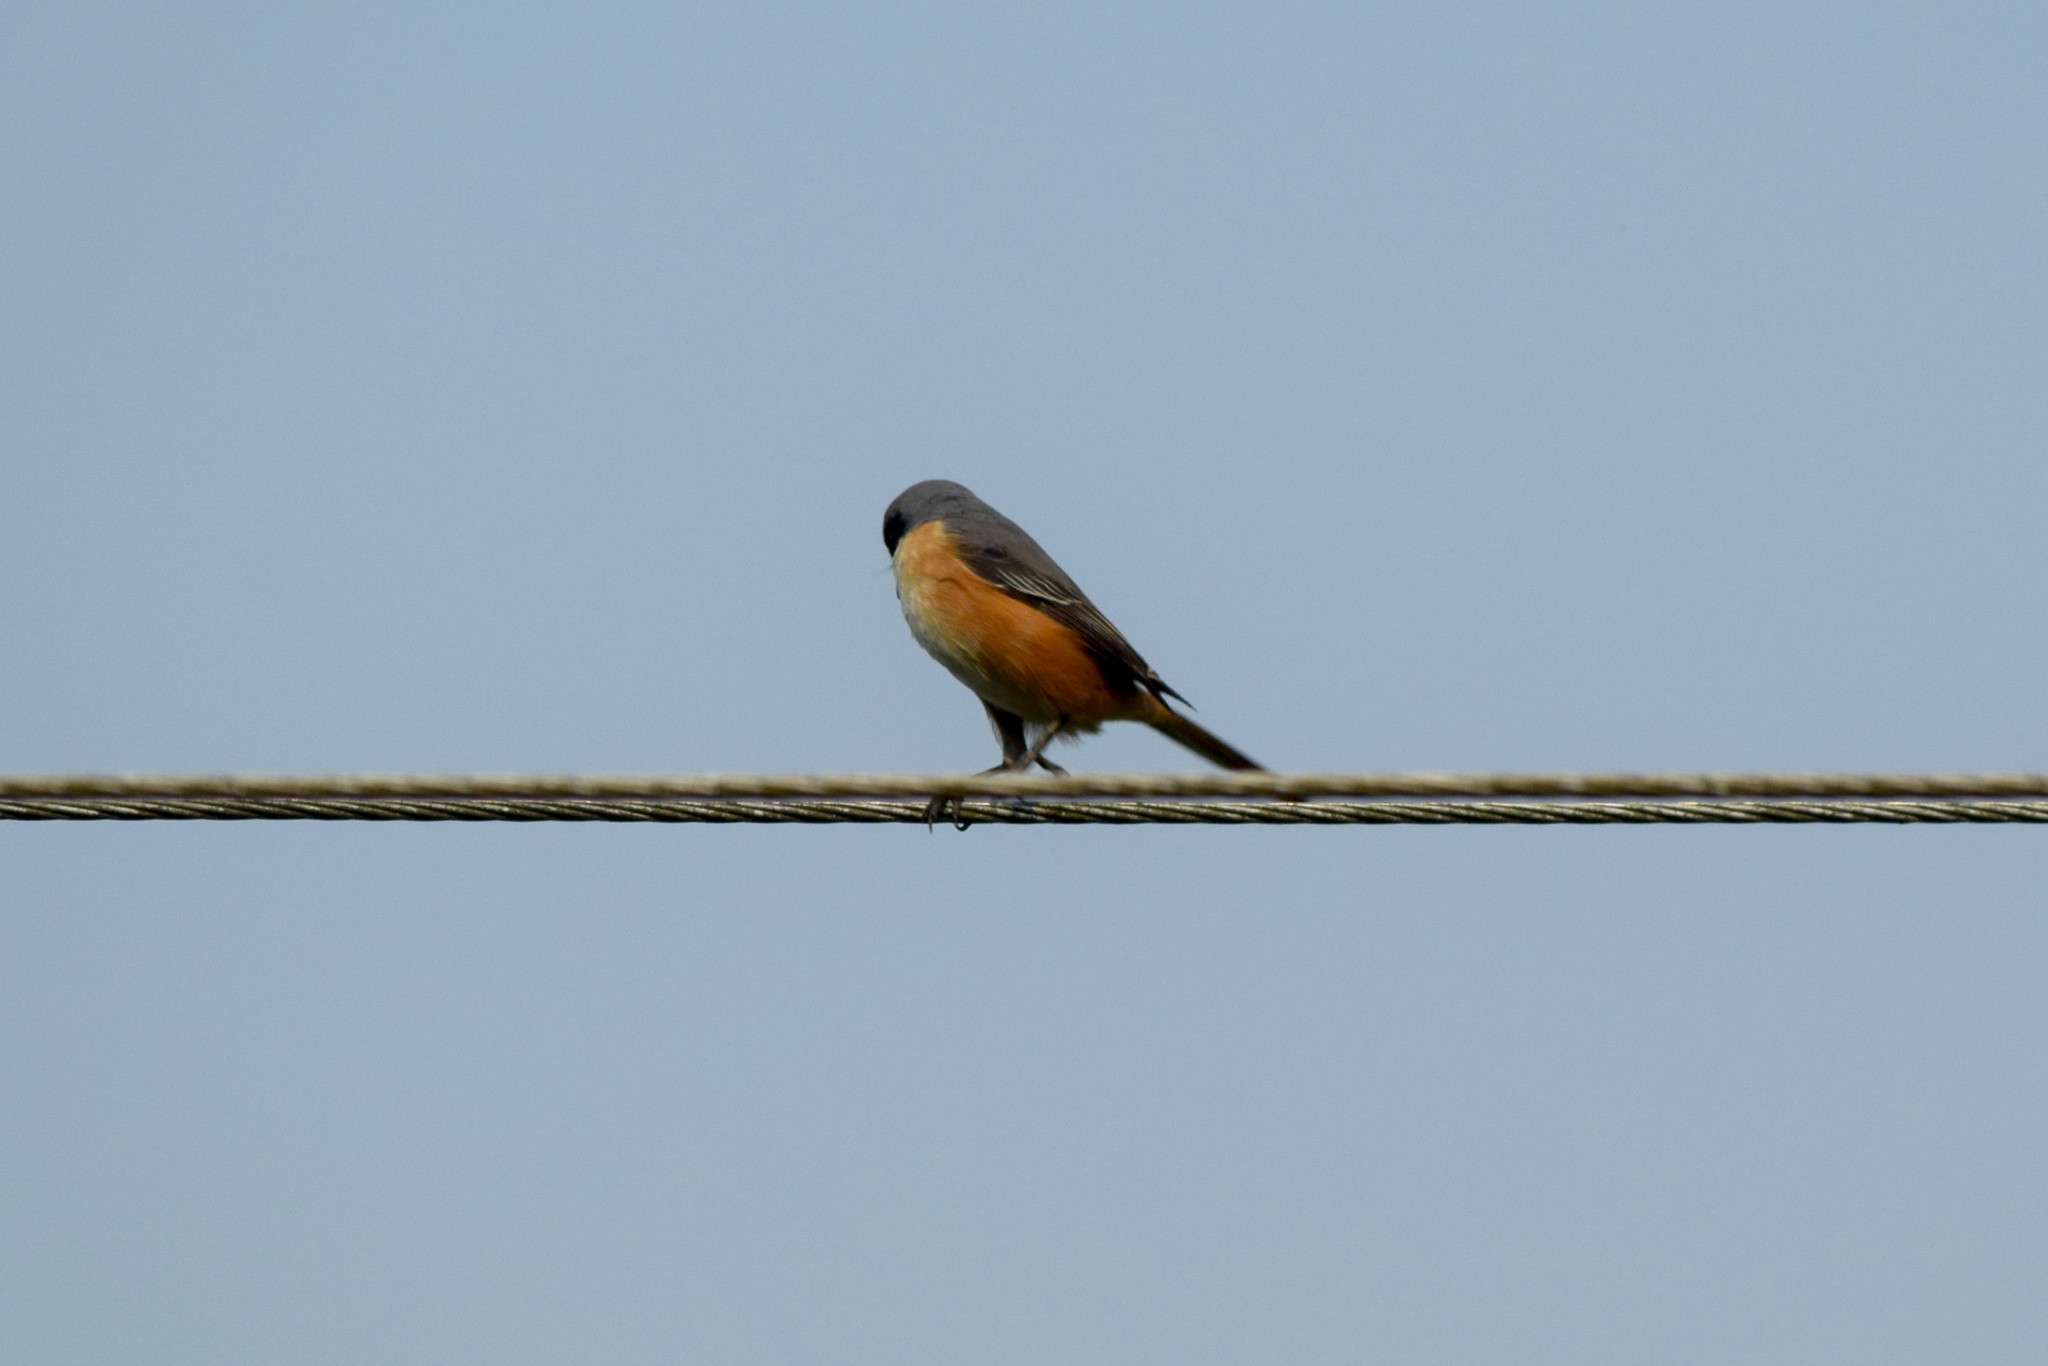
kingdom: Animalia
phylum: Chordata
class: Aves
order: Passeriformes
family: Laniidae
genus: Lanius
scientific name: Lanius tephronotus
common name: Grey-backed shrike
